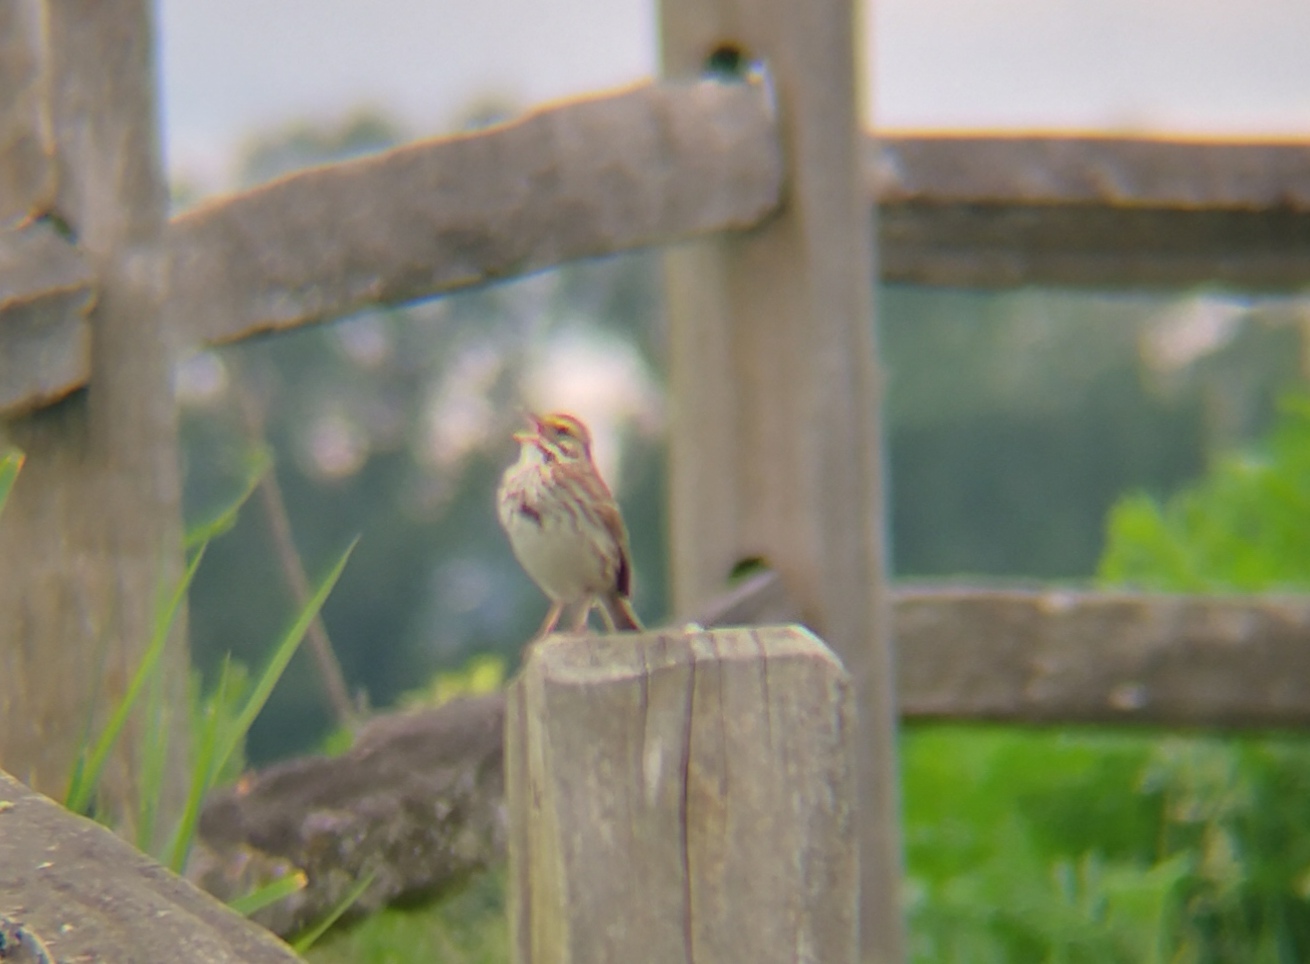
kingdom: Animalia
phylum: Chordata
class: Aves
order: Passeriformes
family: Passerellidae
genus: Passerculus
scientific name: Passerculus sandwichensis
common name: Savannah sparrow
